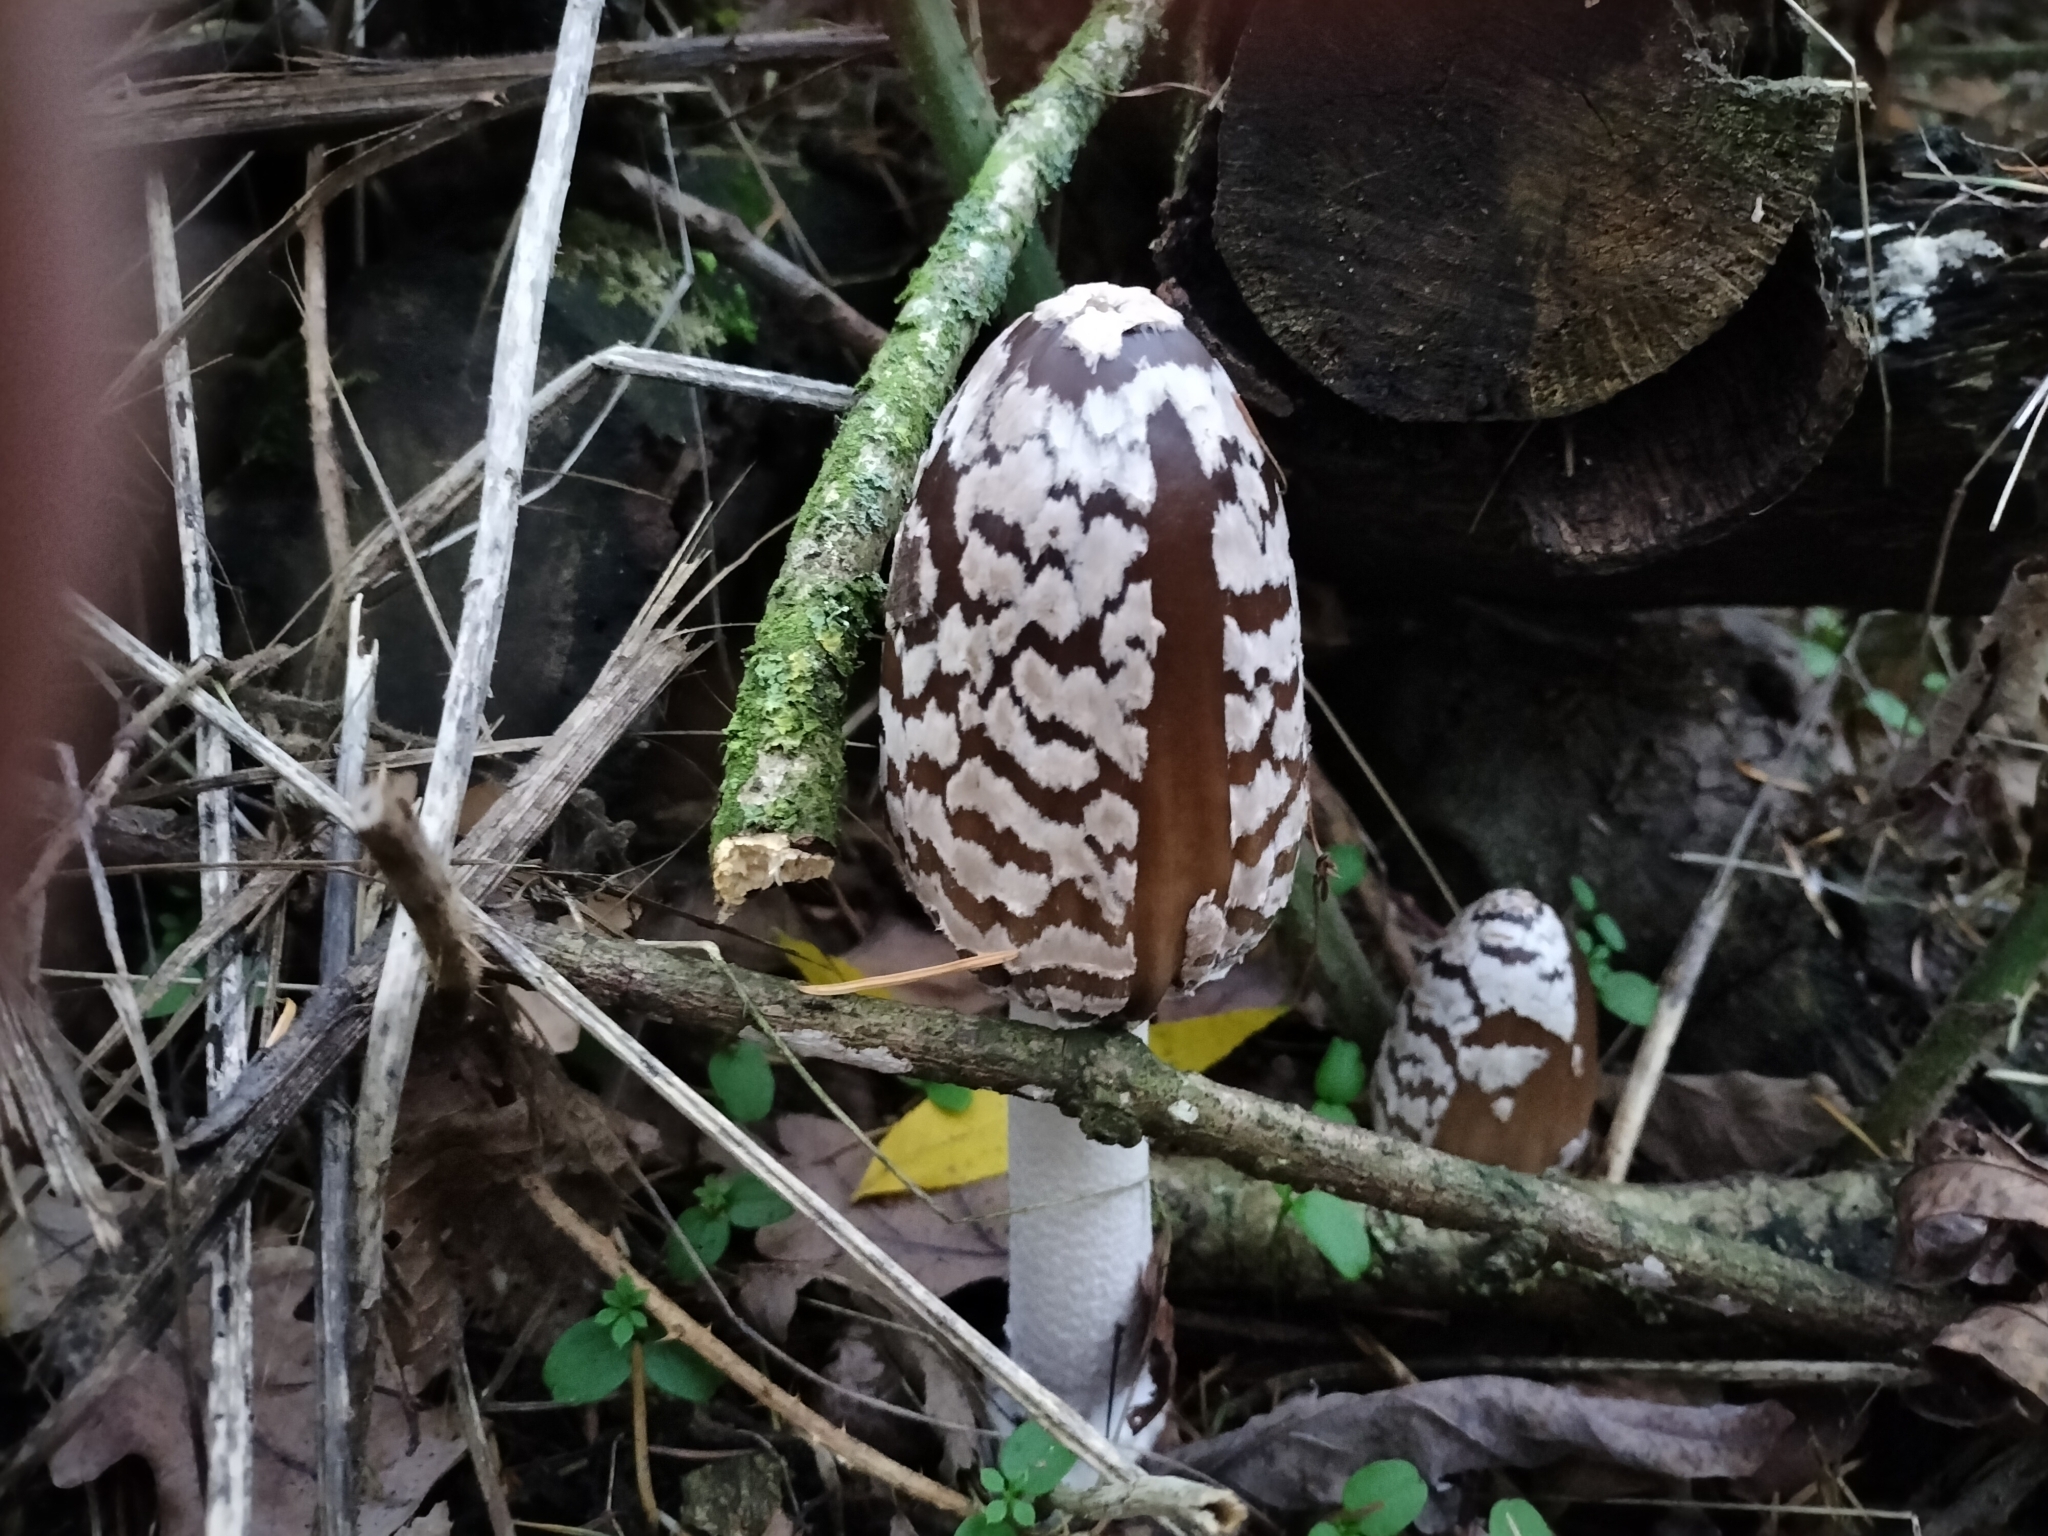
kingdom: Fungi
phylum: Basidiomycota
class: Agaricomycetes
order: Agaricales
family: Psathyrellaceae
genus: Coprinopsis
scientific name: Coprinopsis picacea
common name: Magpie inkcap
